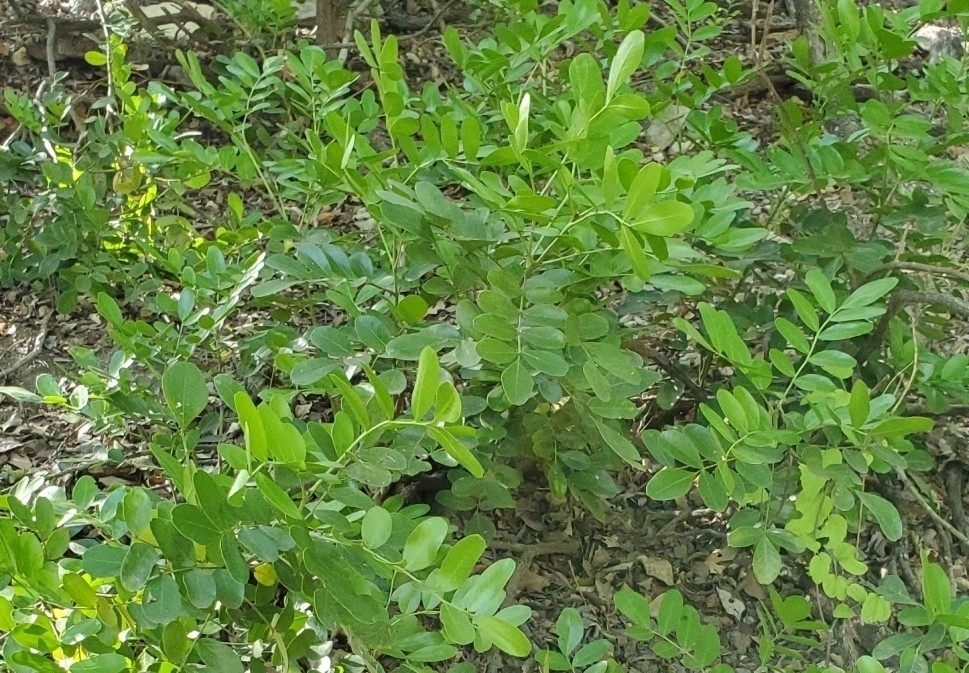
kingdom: Plantae
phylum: Tracheophyta
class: Magnoliopsida
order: Fabales
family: Fabaceae
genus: Dermatophyllum
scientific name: Dermatophyllum secundiflorum
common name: Texas-mountain-laurel
